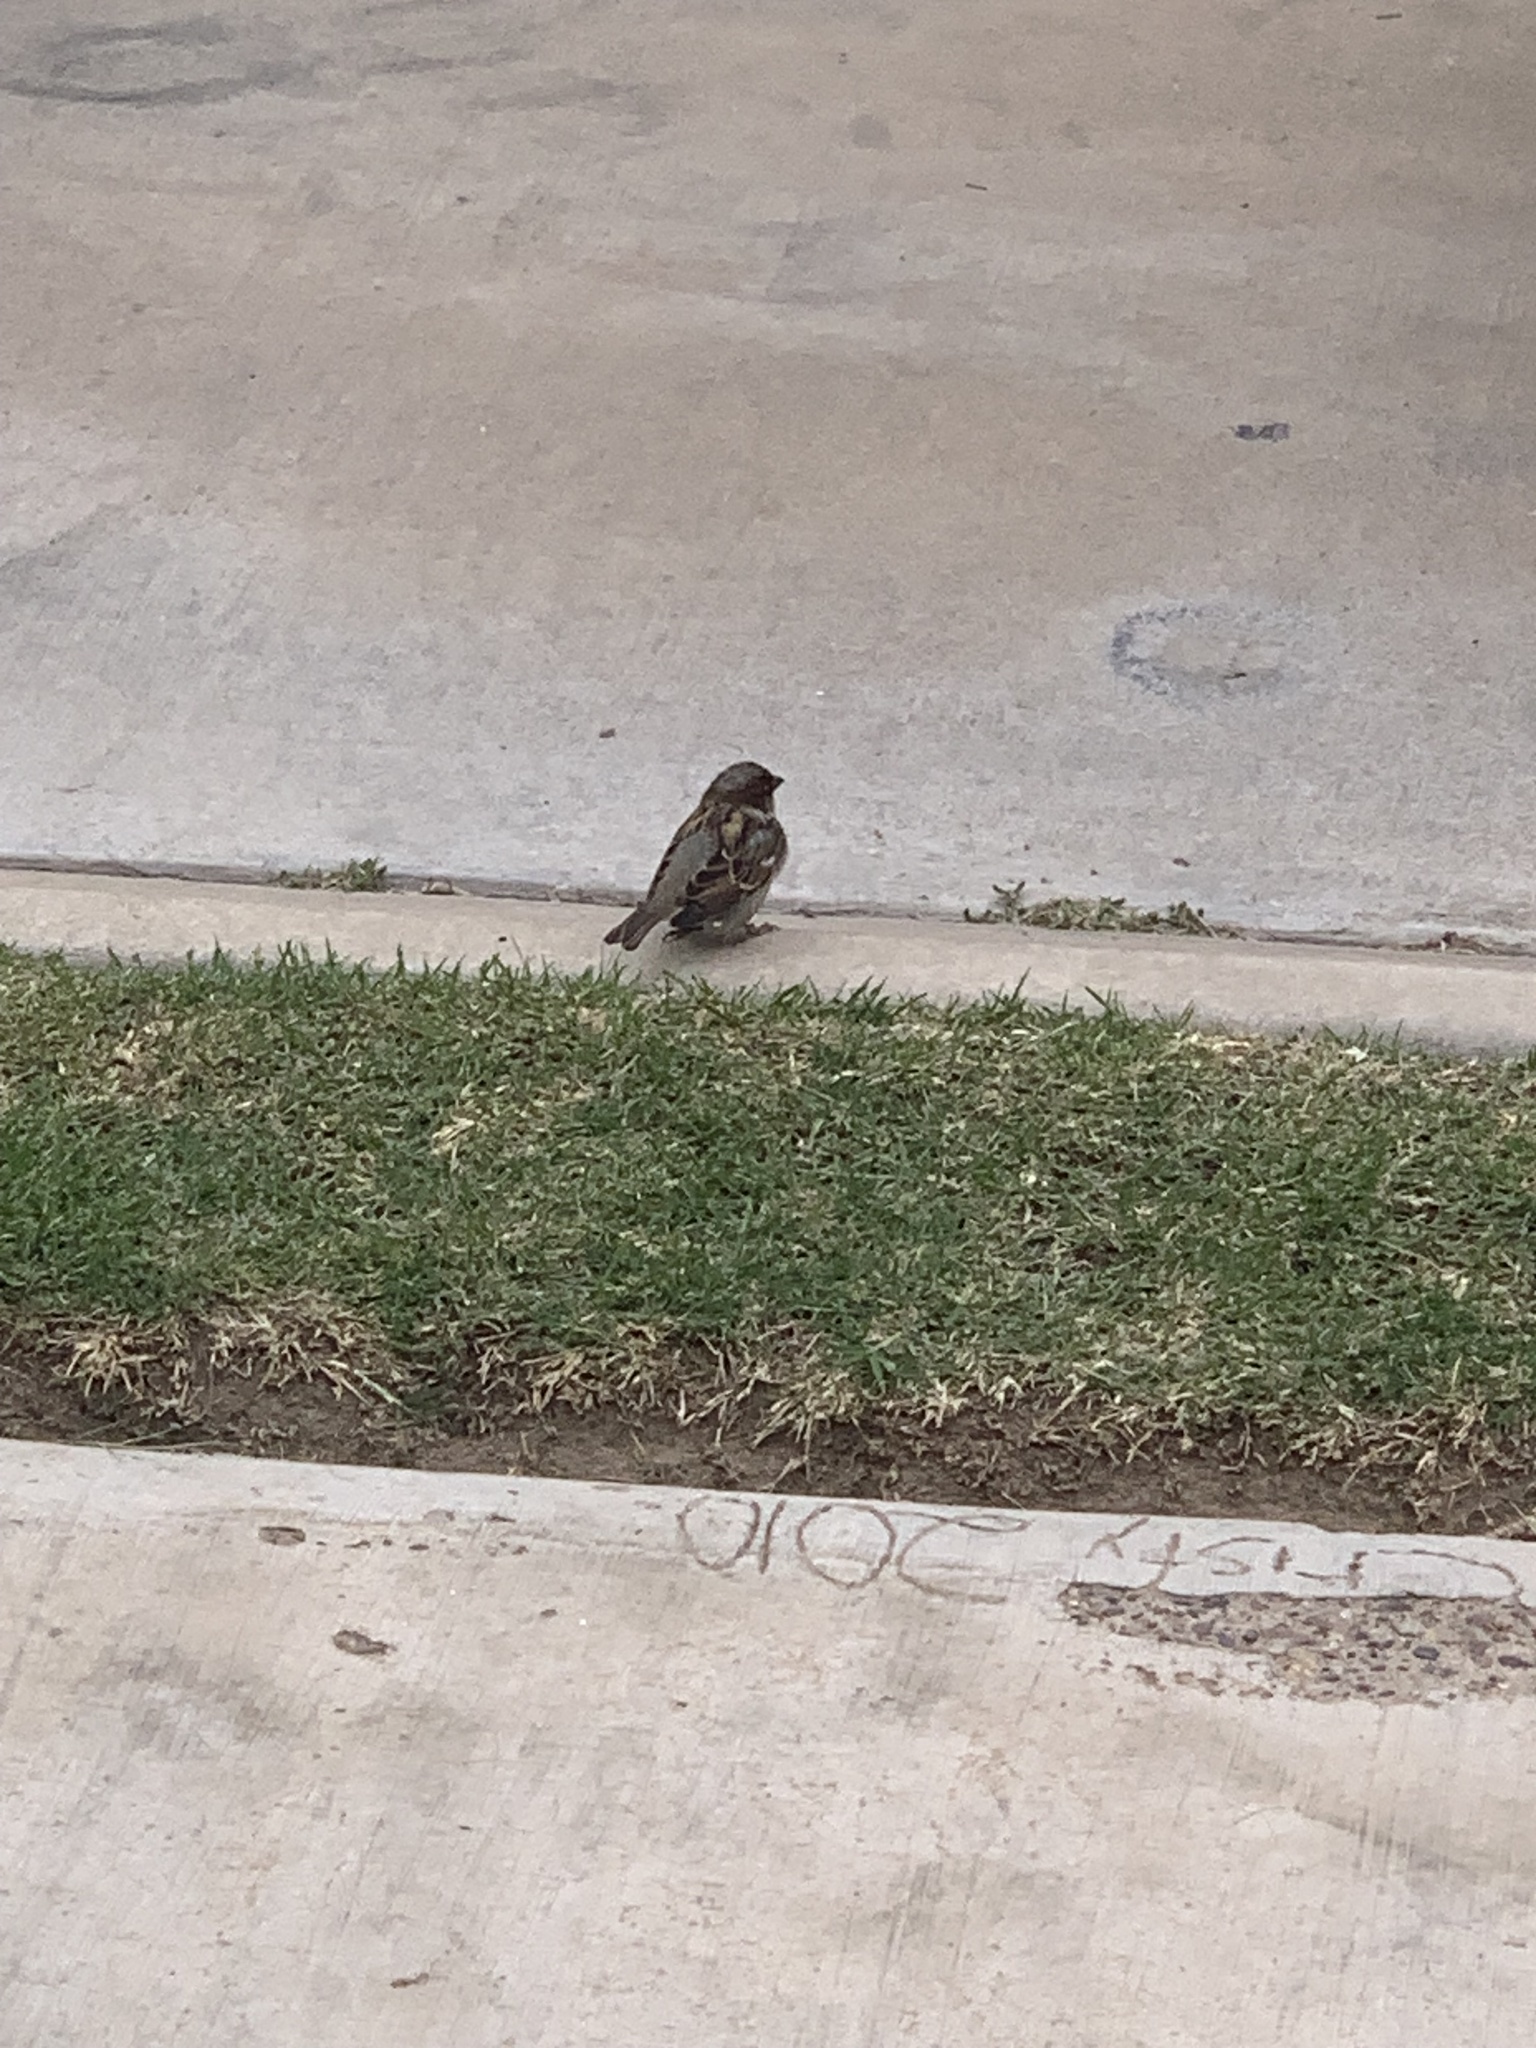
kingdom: Animalia
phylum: Chordata
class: Aves
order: Passeriformes
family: Passeridae
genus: Passer
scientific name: Passer domesticus
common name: House sparrow
